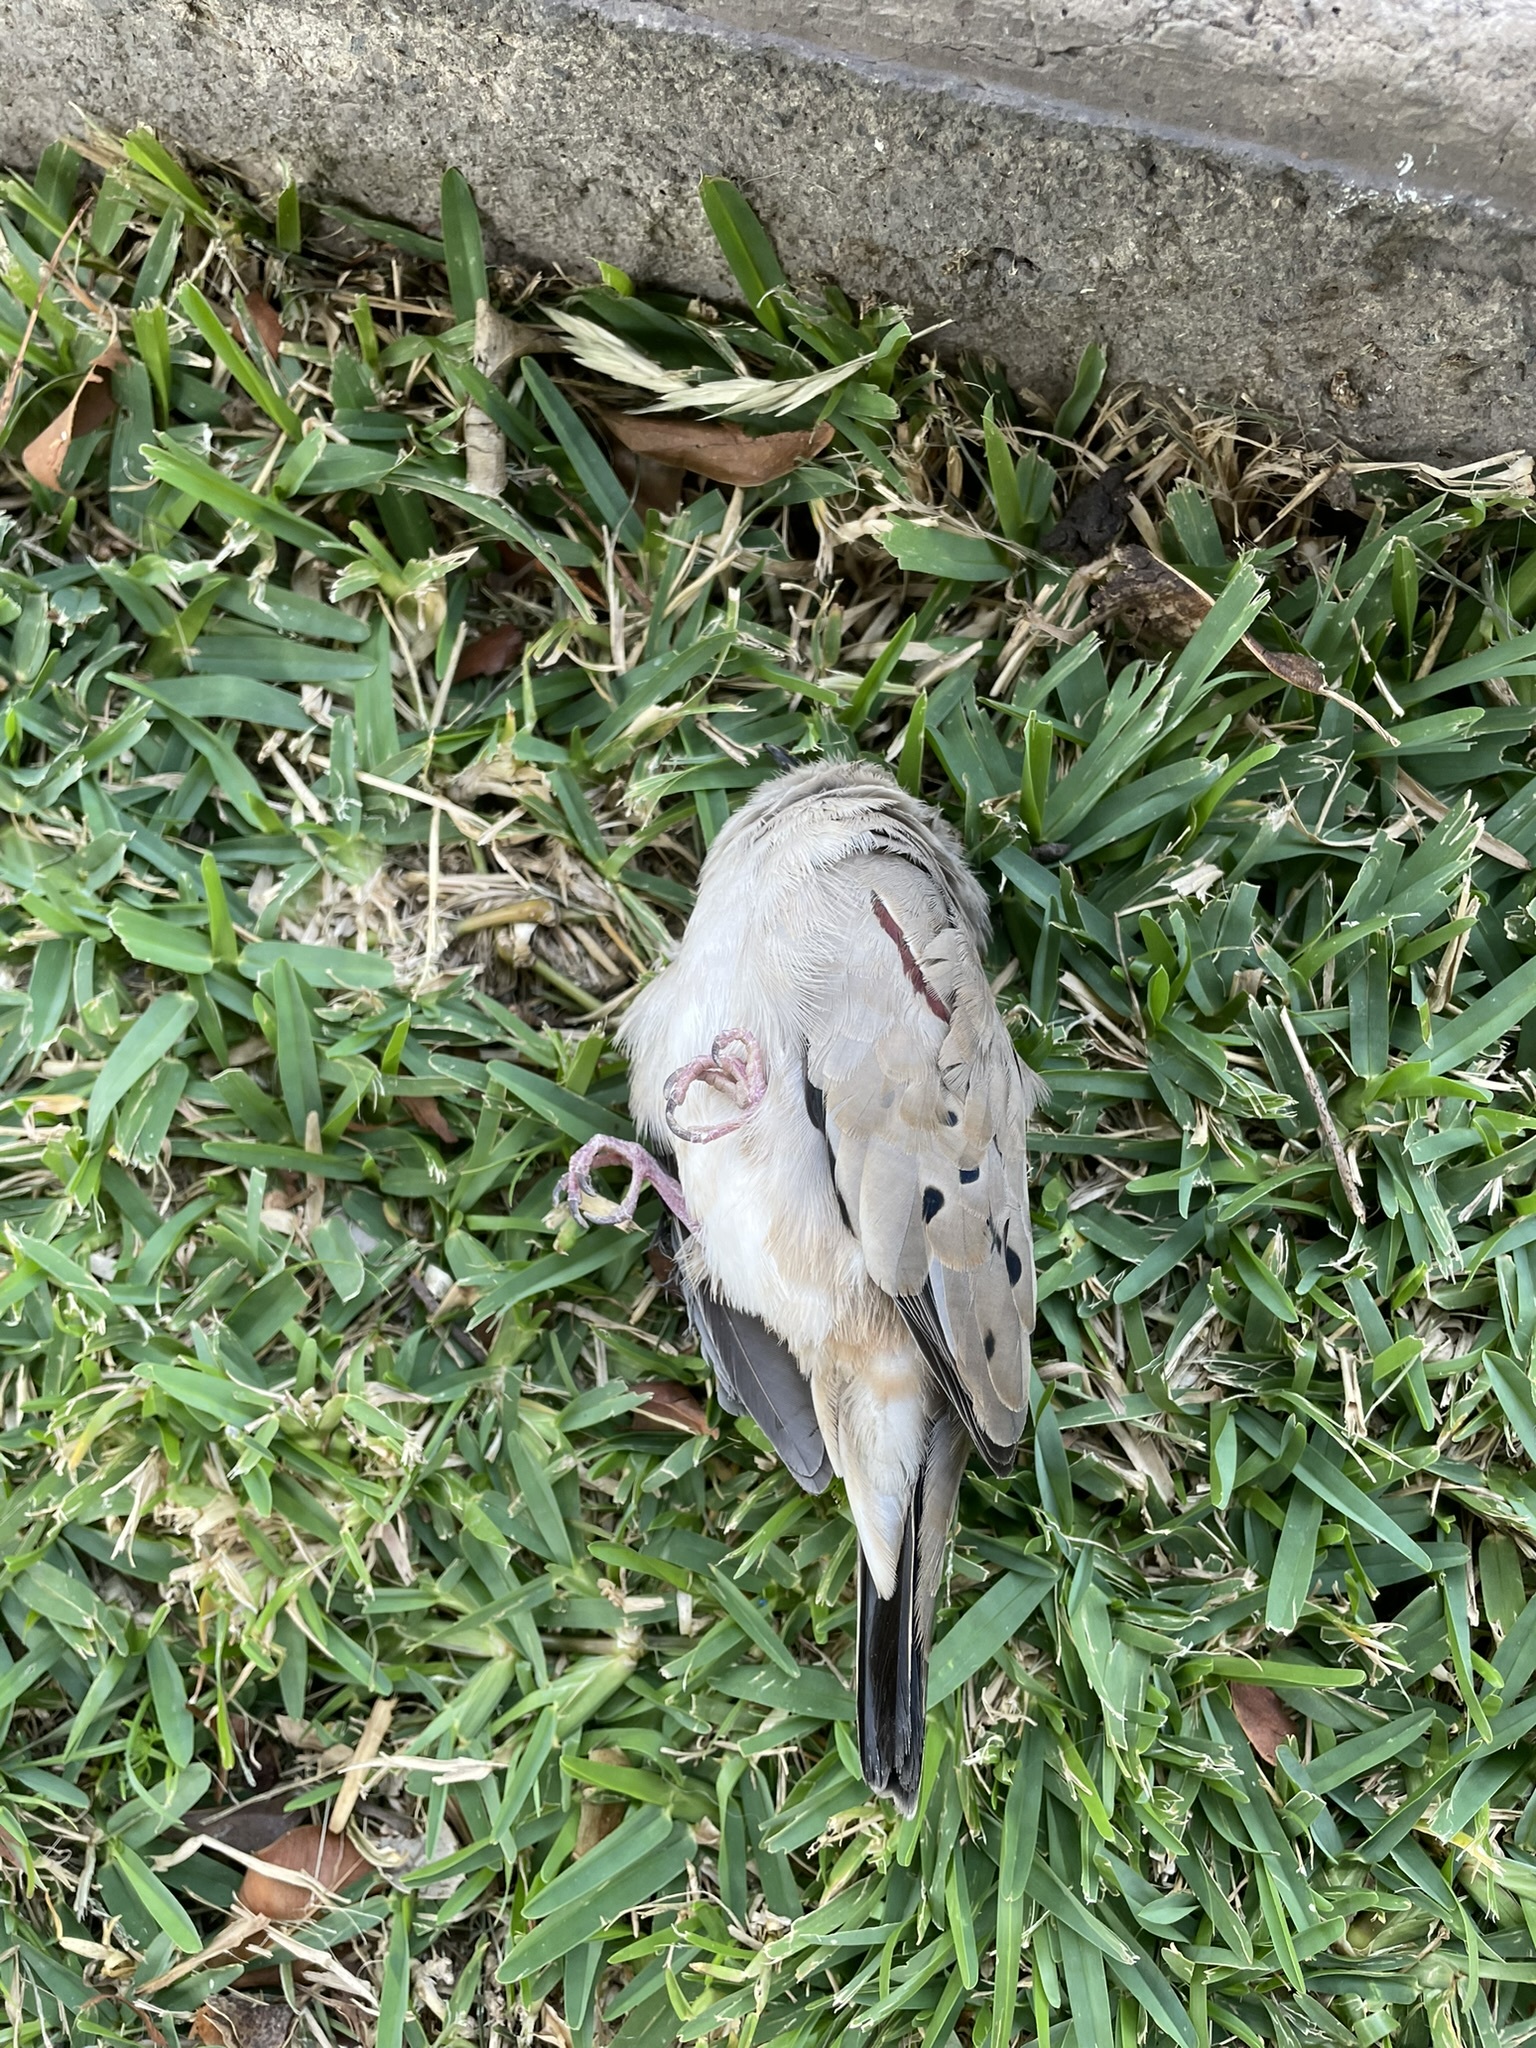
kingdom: Animalia
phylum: Chordata
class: Aves
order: Columbiformes
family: Columbidae
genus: Columbina
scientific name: Columbina cruziana
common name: Croaking ground dove
